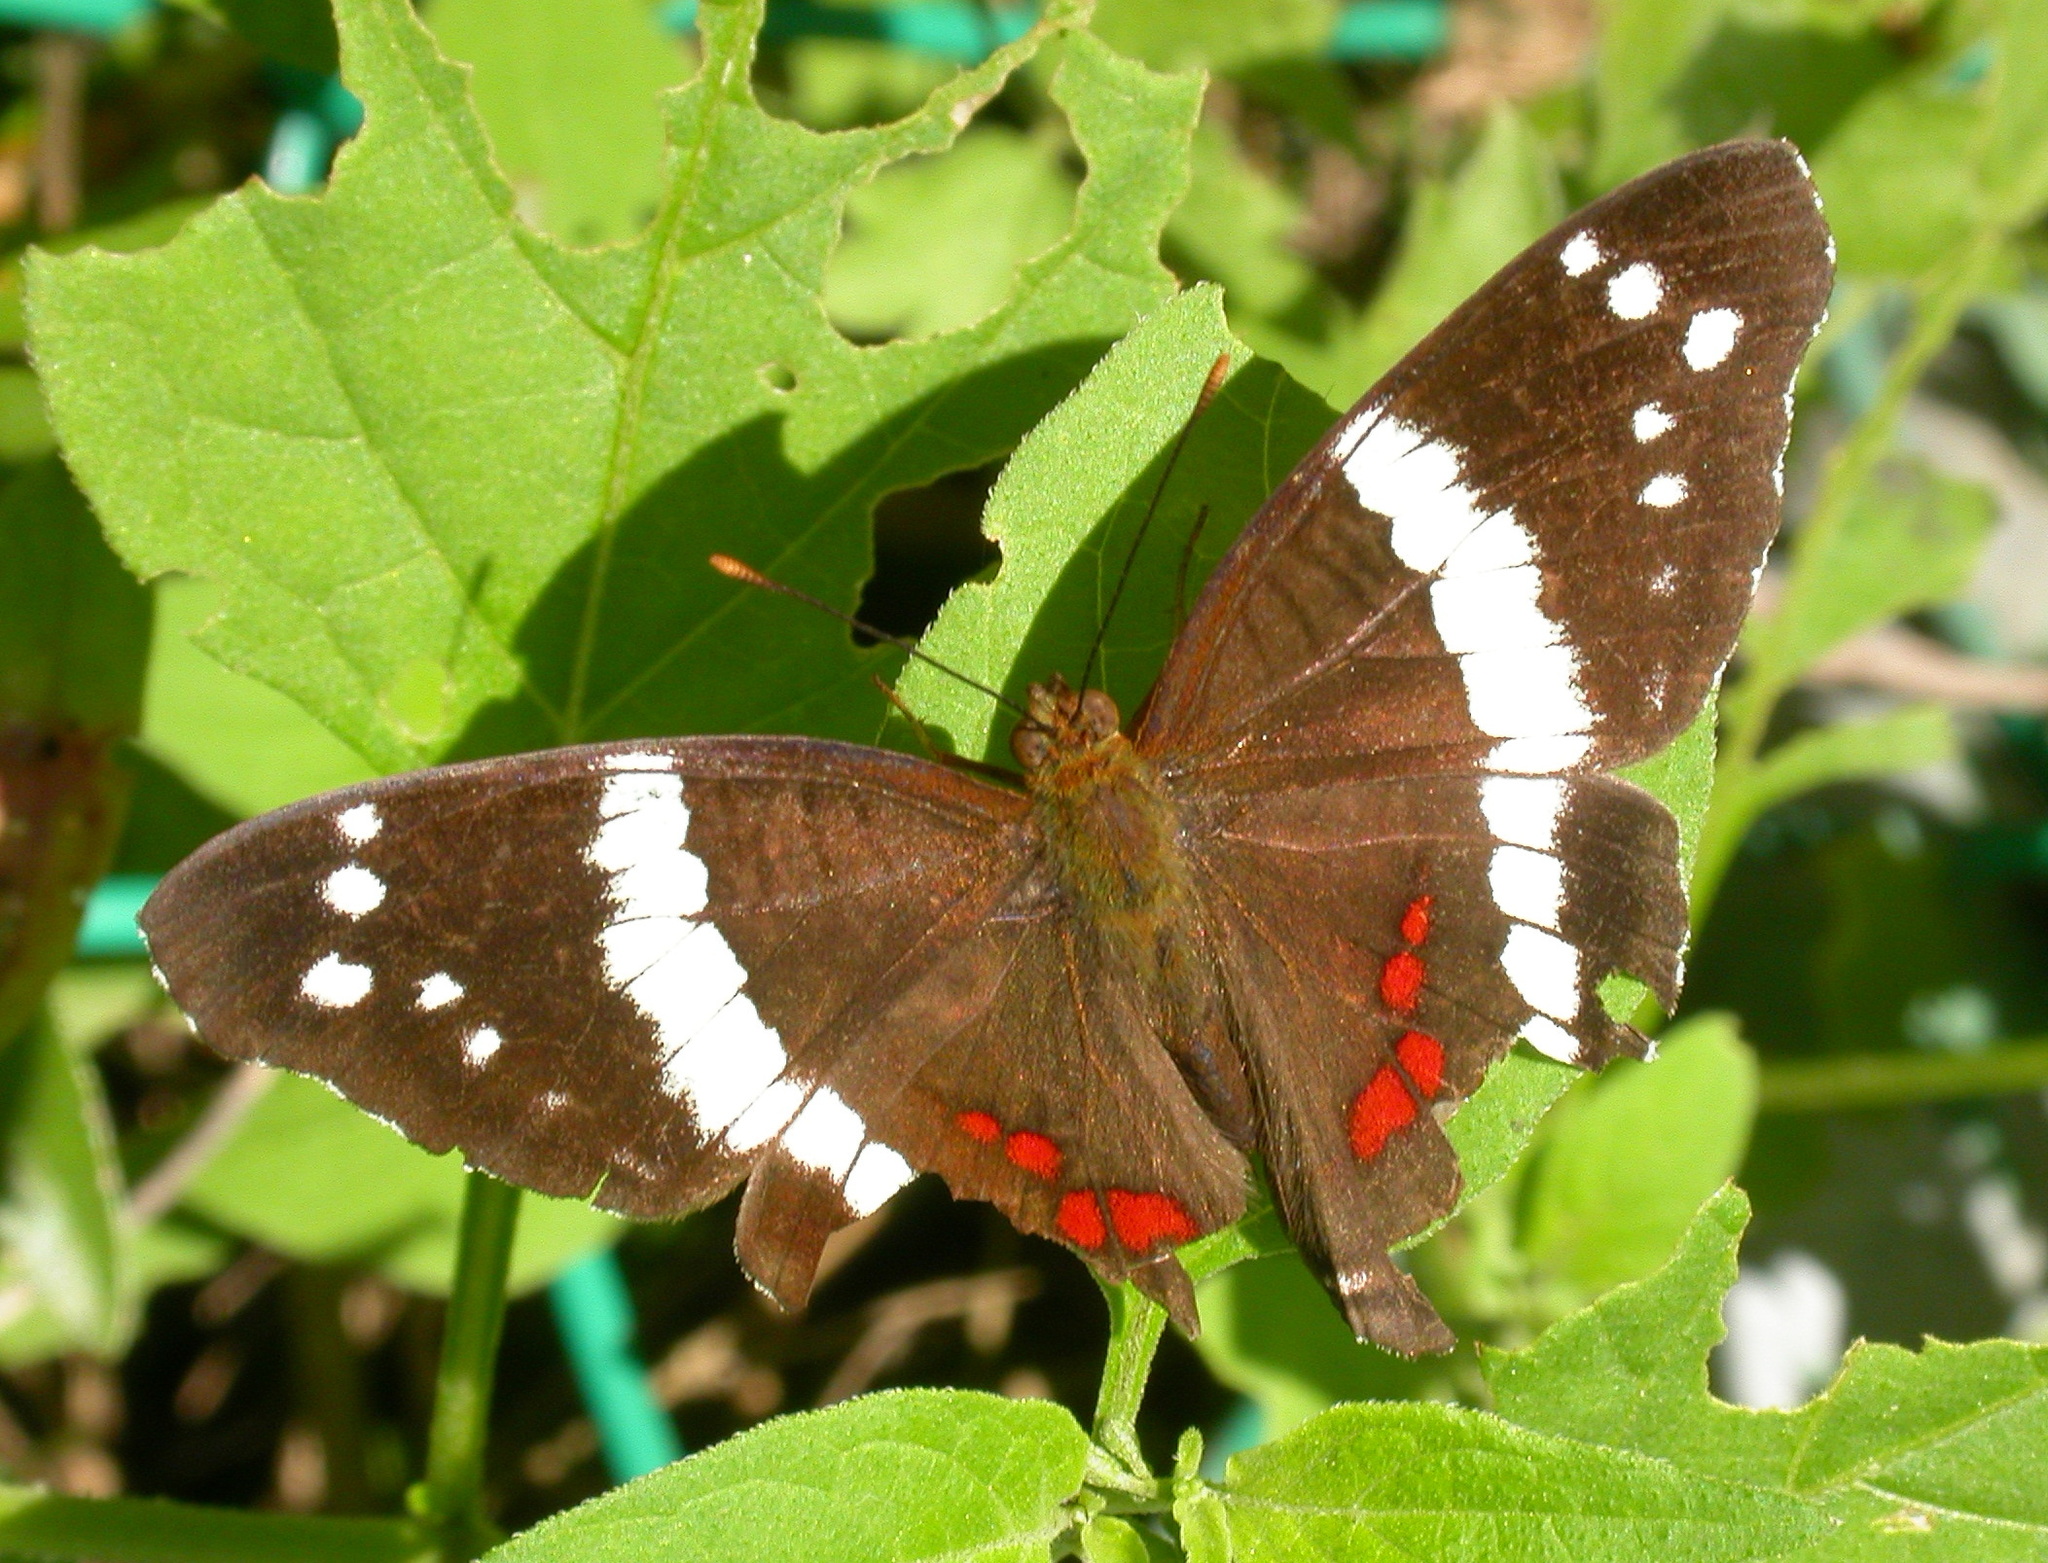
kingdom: Animalia
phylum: Arthropoda
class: Insecta
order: Lepidoptera
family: Nymphalidae
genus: Anartia
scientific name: Anartia fatima
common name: Banded peacock
